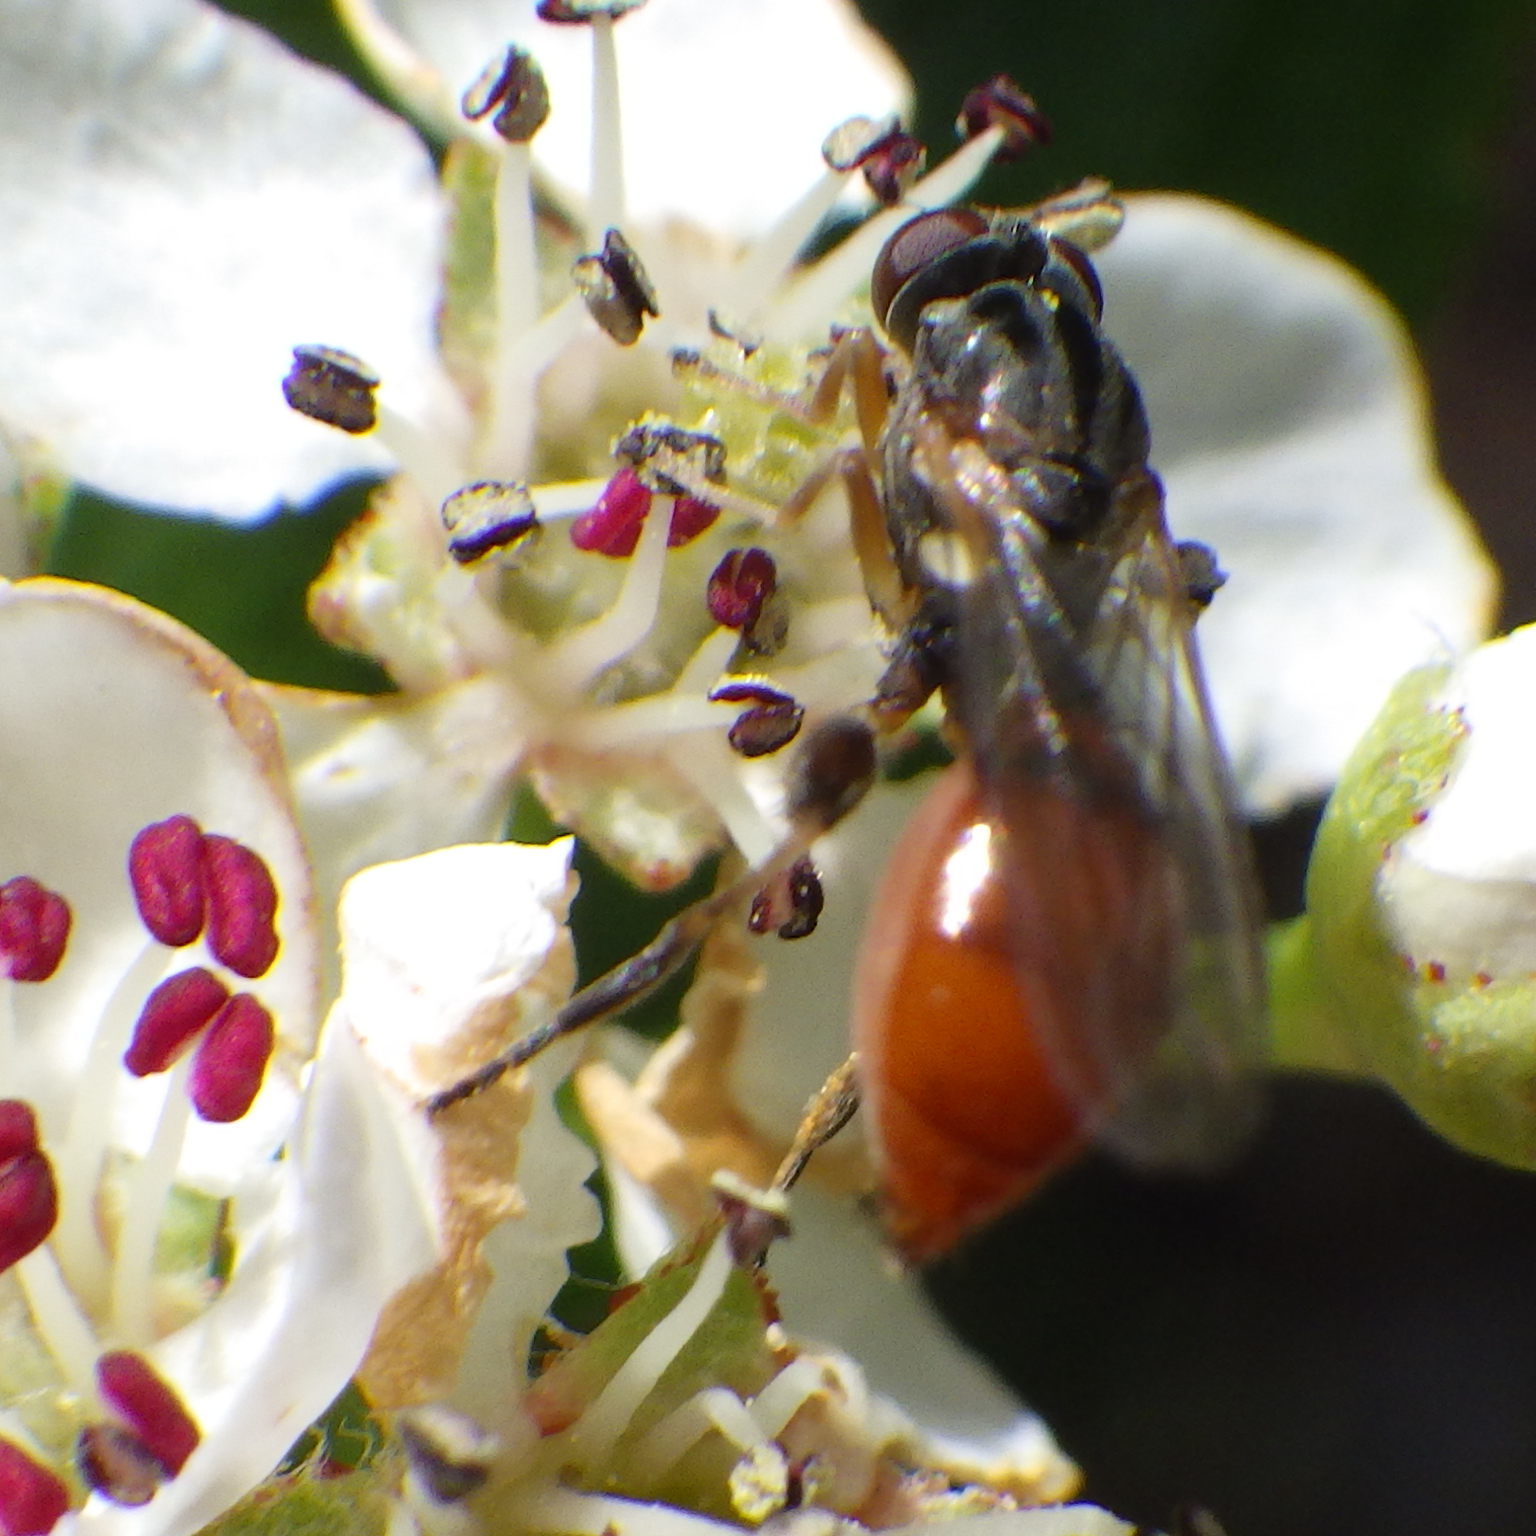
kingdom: Animalia
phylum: Arthropoda
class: Insecta
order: Diptera
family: Syrphidae
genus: Sphegina
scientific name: Sphegina rufiventris
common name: Black-horned pufftail
